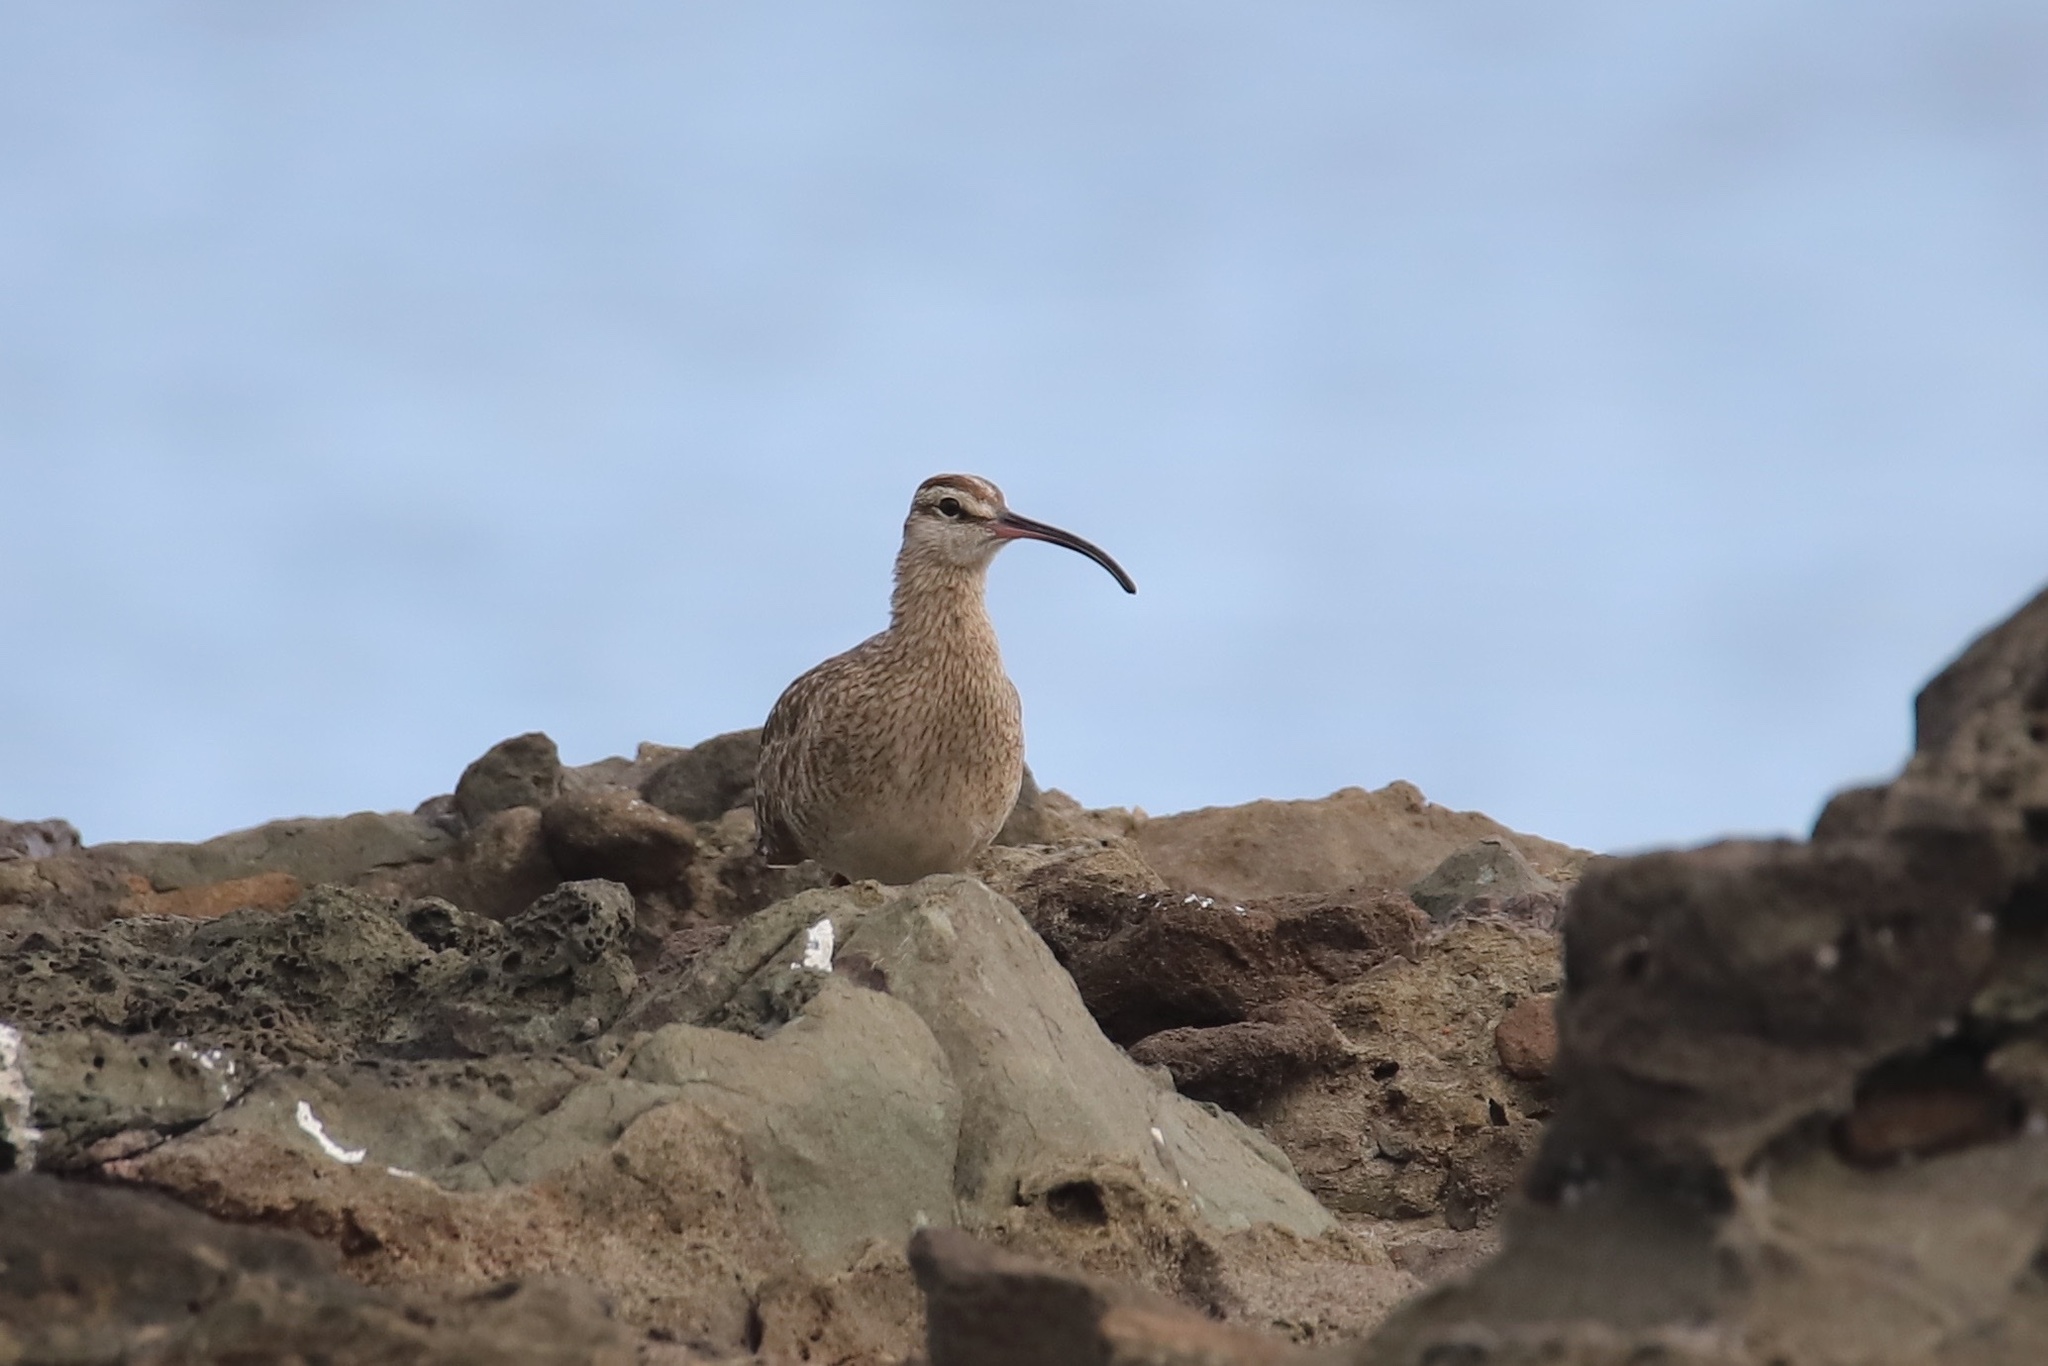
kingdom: Animalia
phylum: Chordata
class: Aves
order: Charadriiformes
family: Scolopacidae
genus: Numenius
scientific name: Numenius phaeopus
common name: Whimbrel
